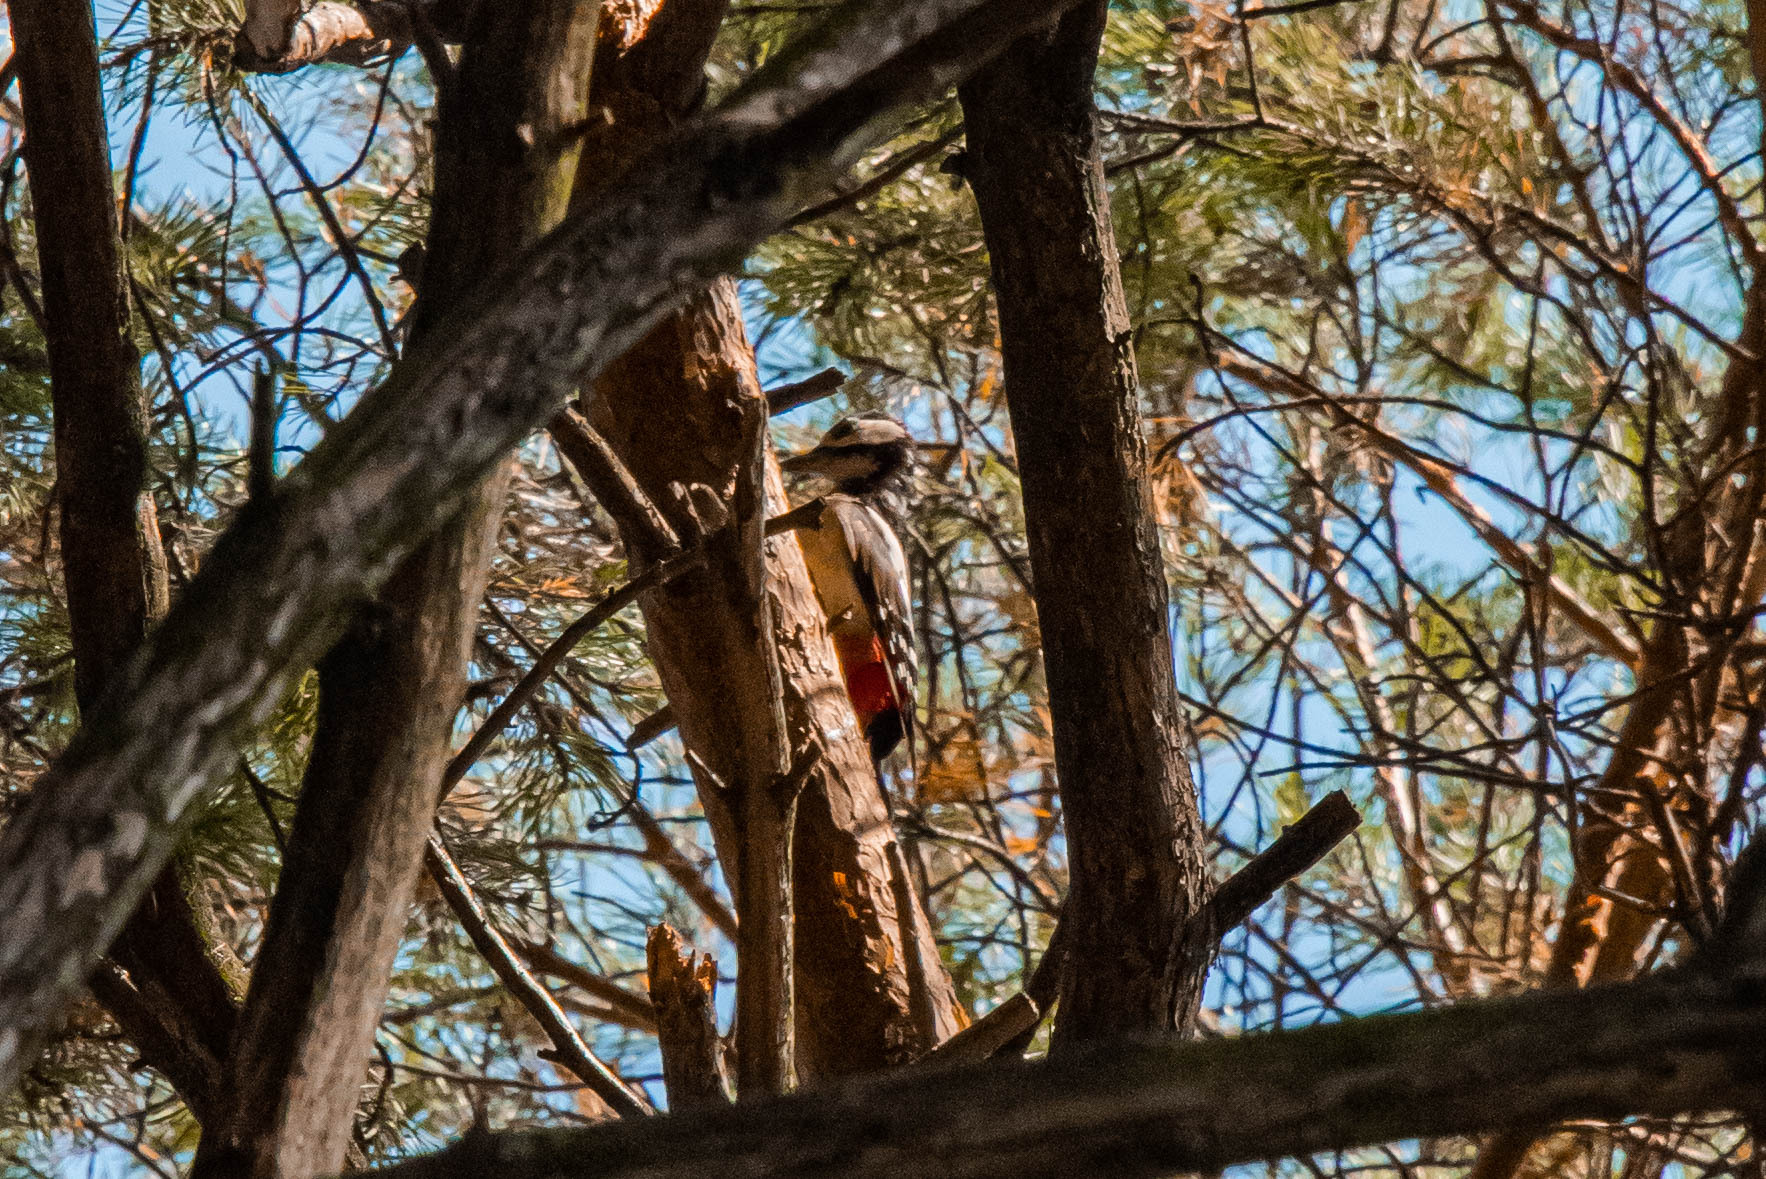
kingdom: Animalia
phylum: Chordata
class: Aves
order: Piciformes
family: Picidae
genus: Dendrocopos
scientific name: Dendrocopos major
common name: Great spotted woodpecker
